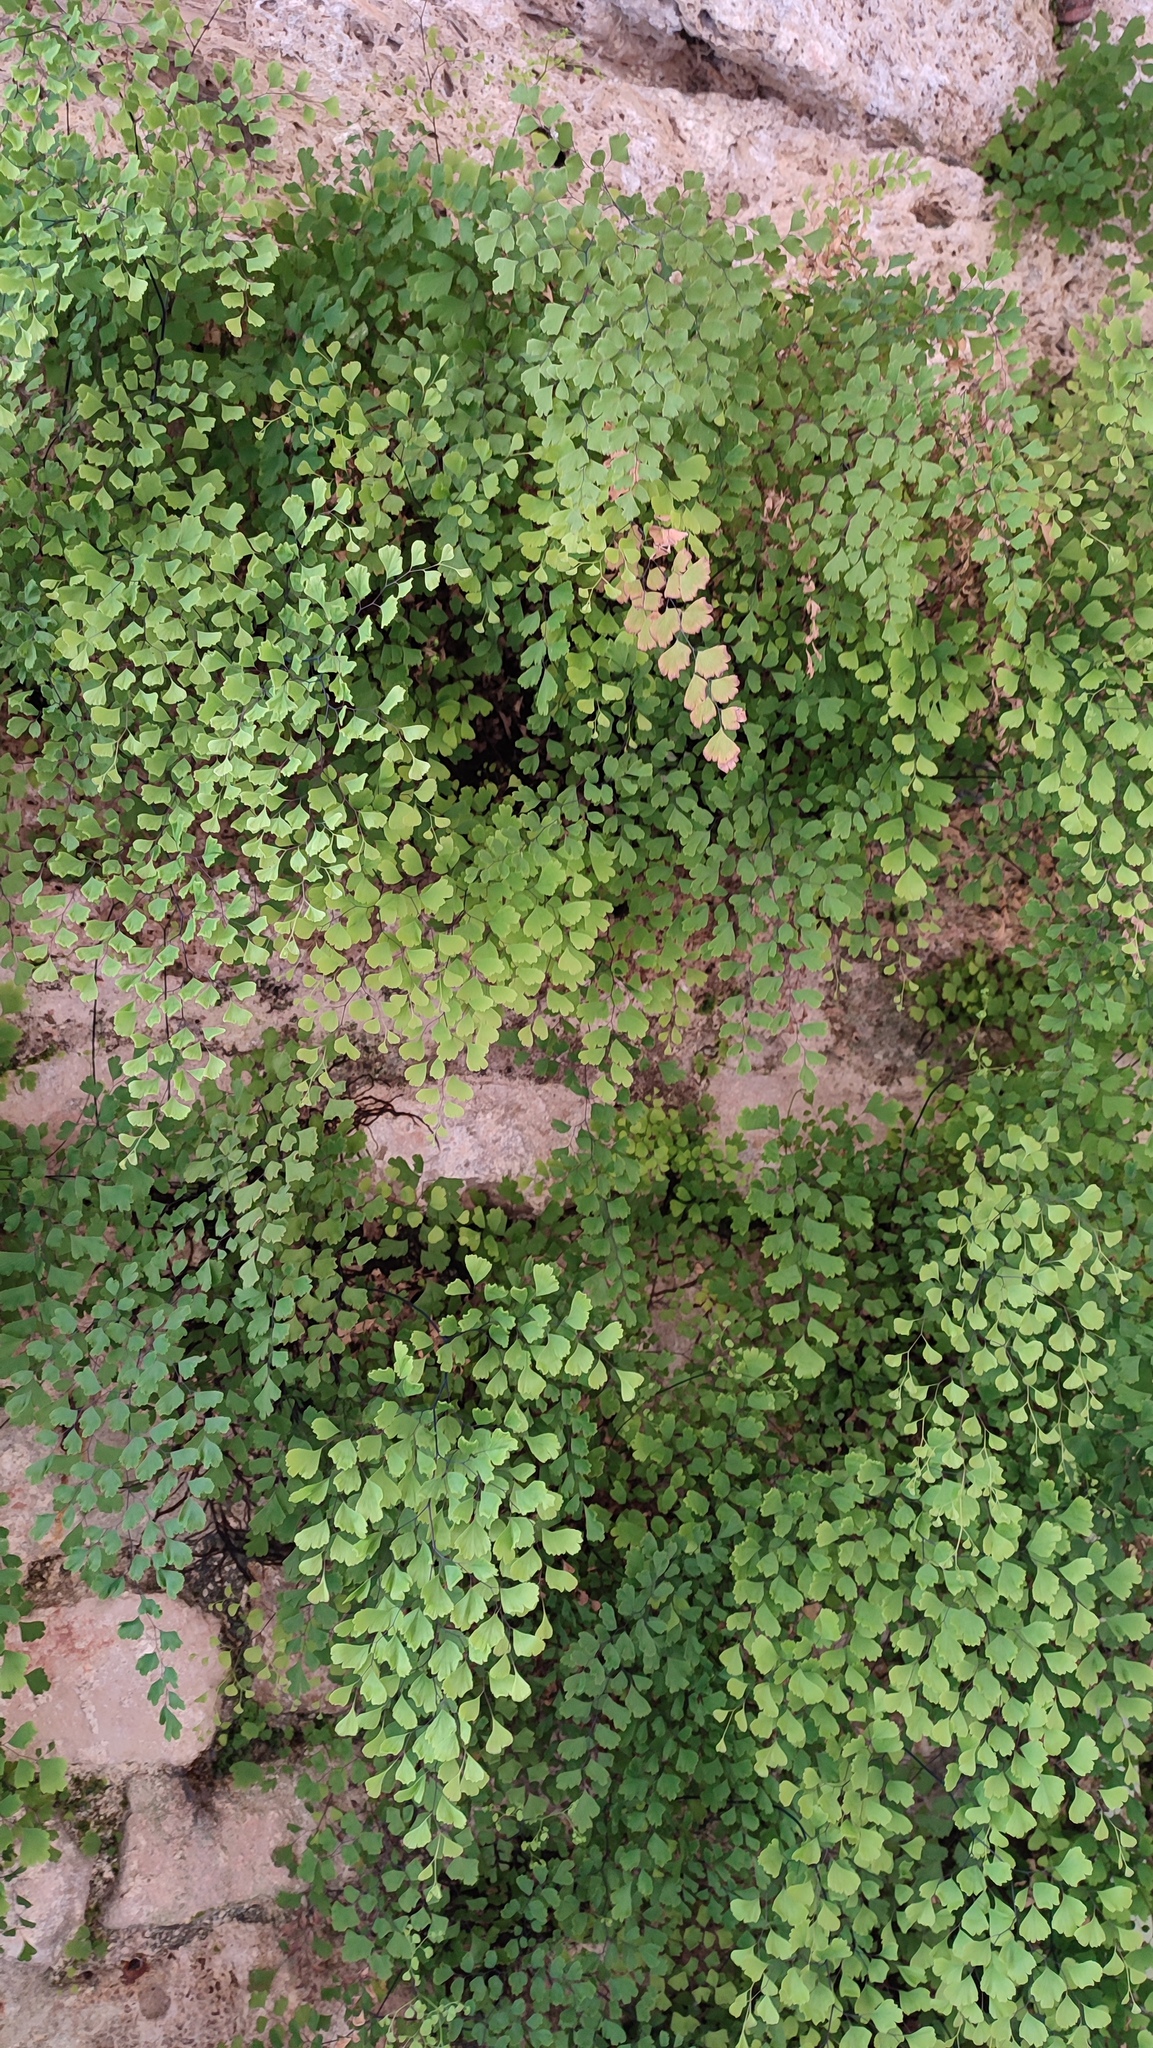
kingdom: Plantae
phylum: Tracheophyta
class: Polypodiopsida
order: Polypodiales
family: Pteridaceae
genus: Adiantum
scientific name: Adiantum capillus-veneris
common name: Maidenhair fern
